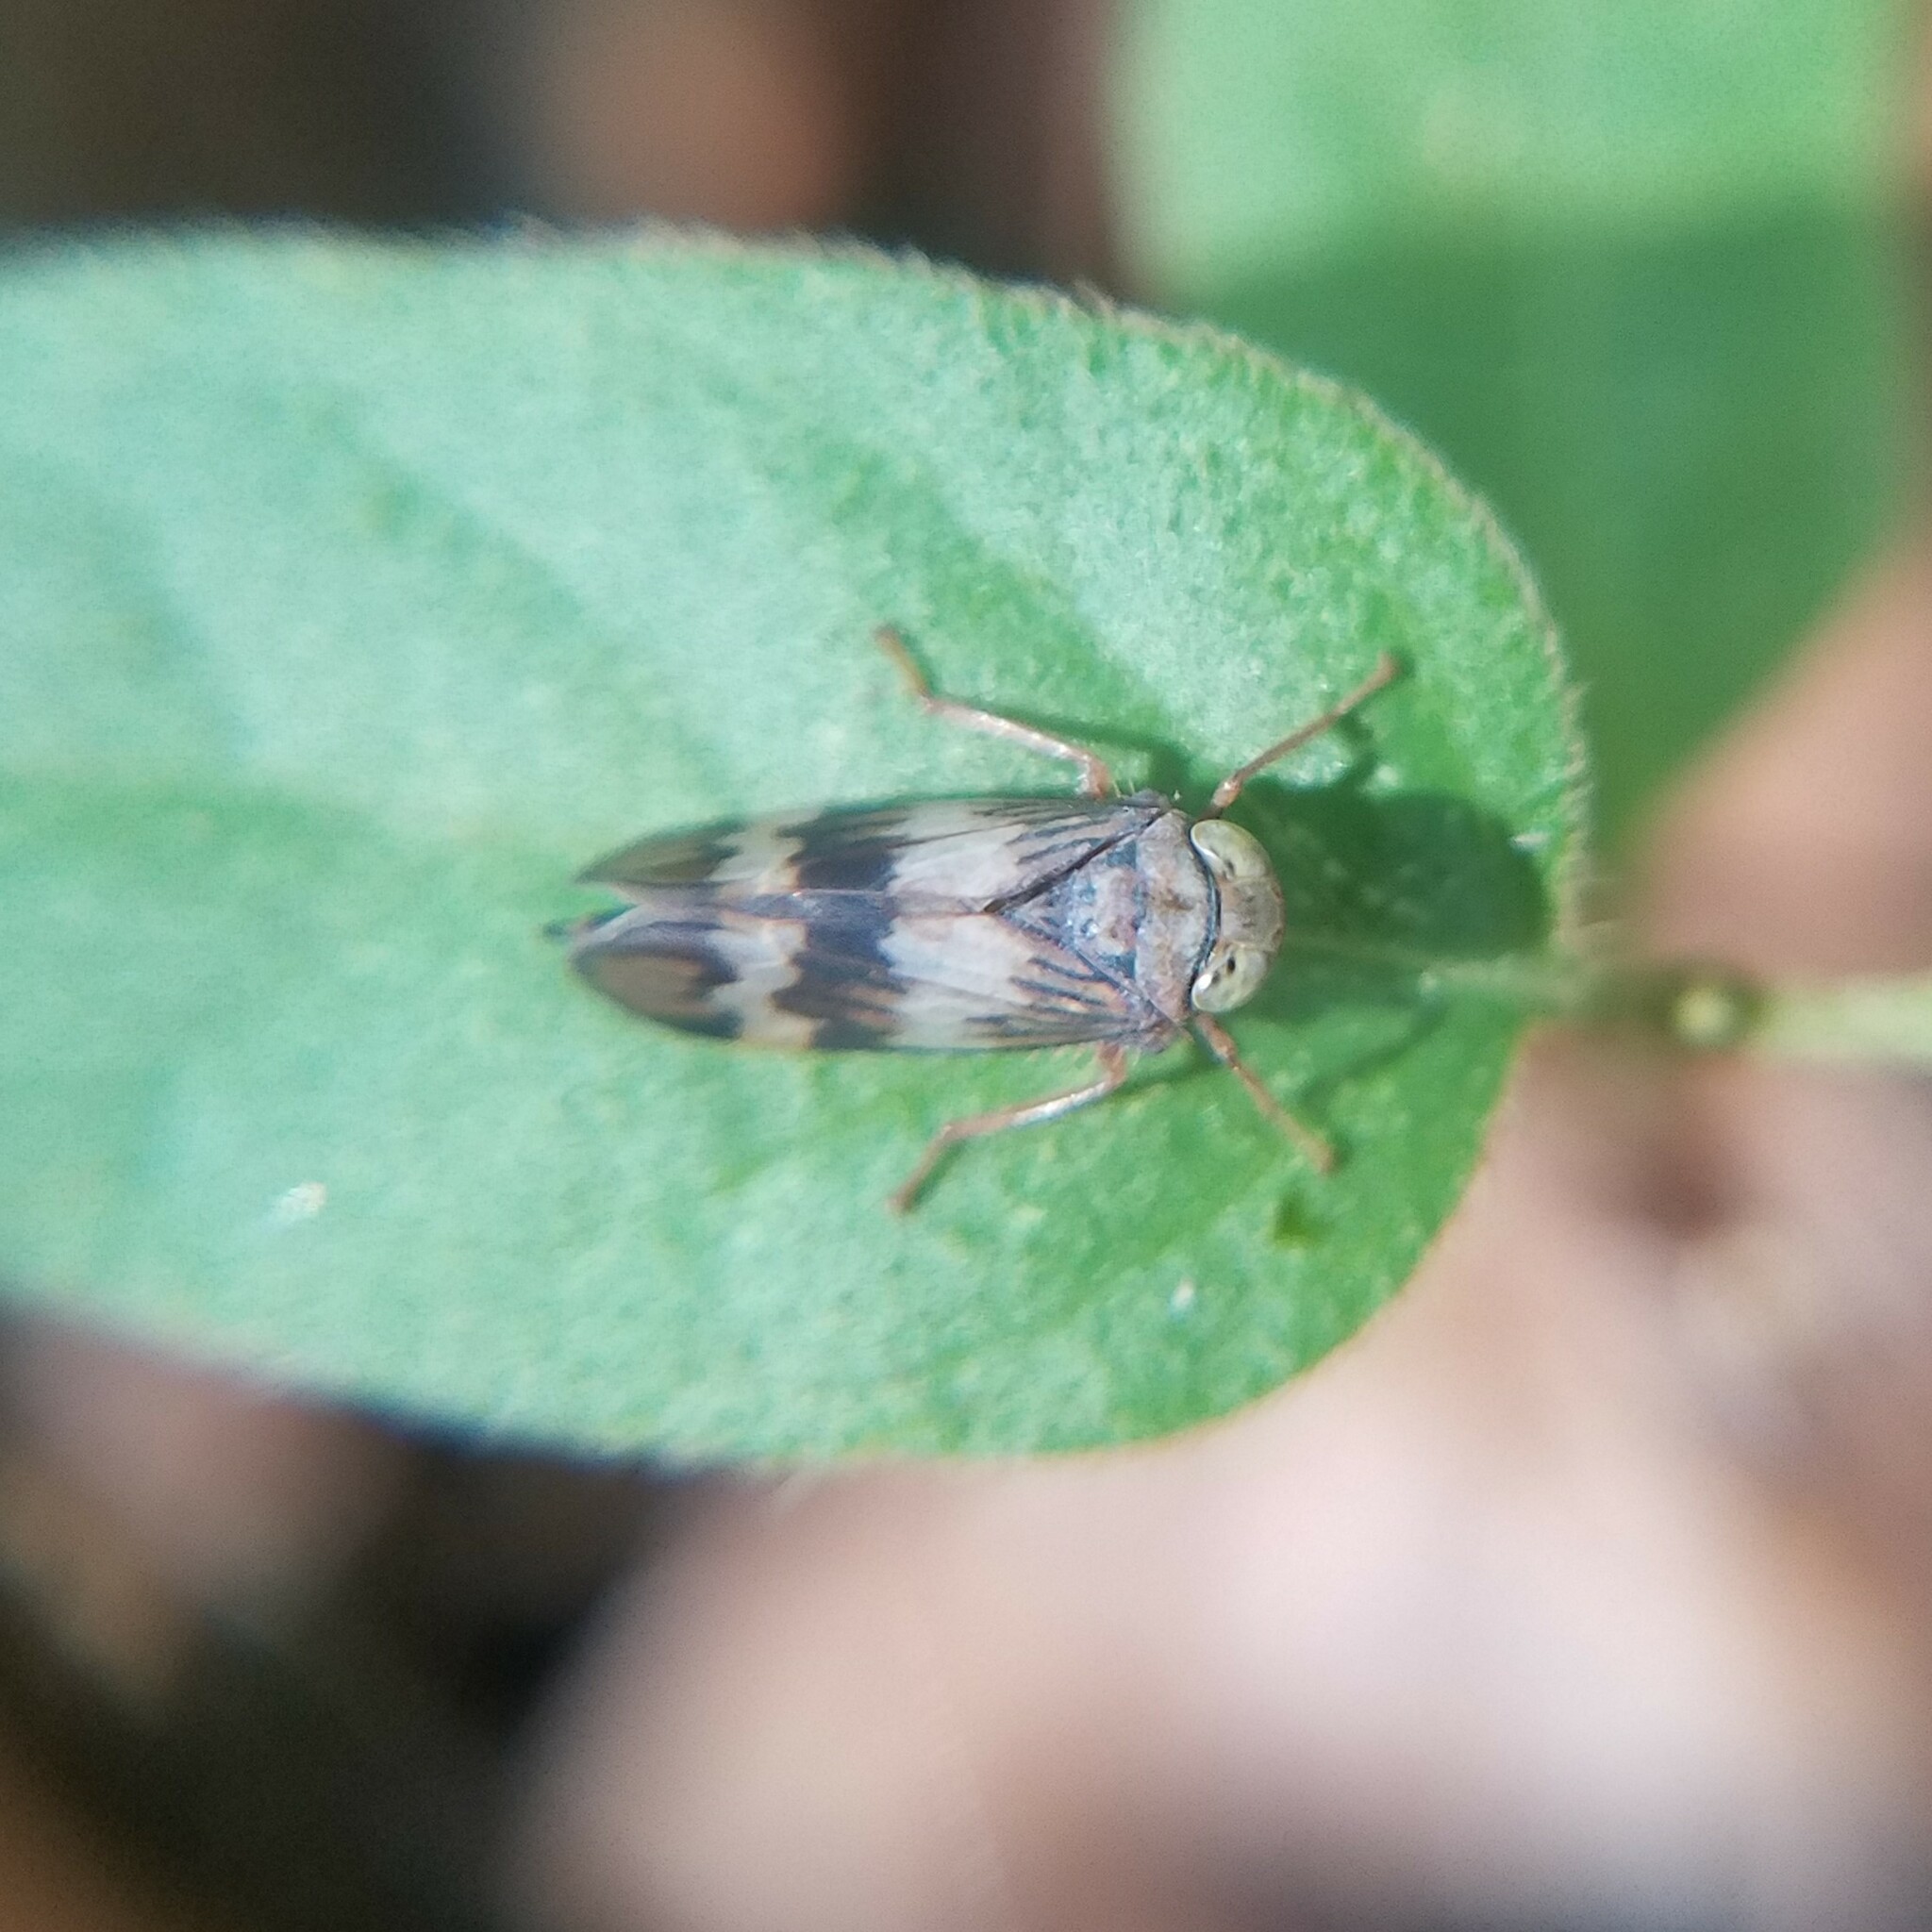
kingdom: Animalia
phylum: Arthropoda
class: Insecta
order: Hemiptera
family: Cicadellidae
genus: Jikradia
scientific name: Jikradia olitoria
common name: Coppery leafhopper
